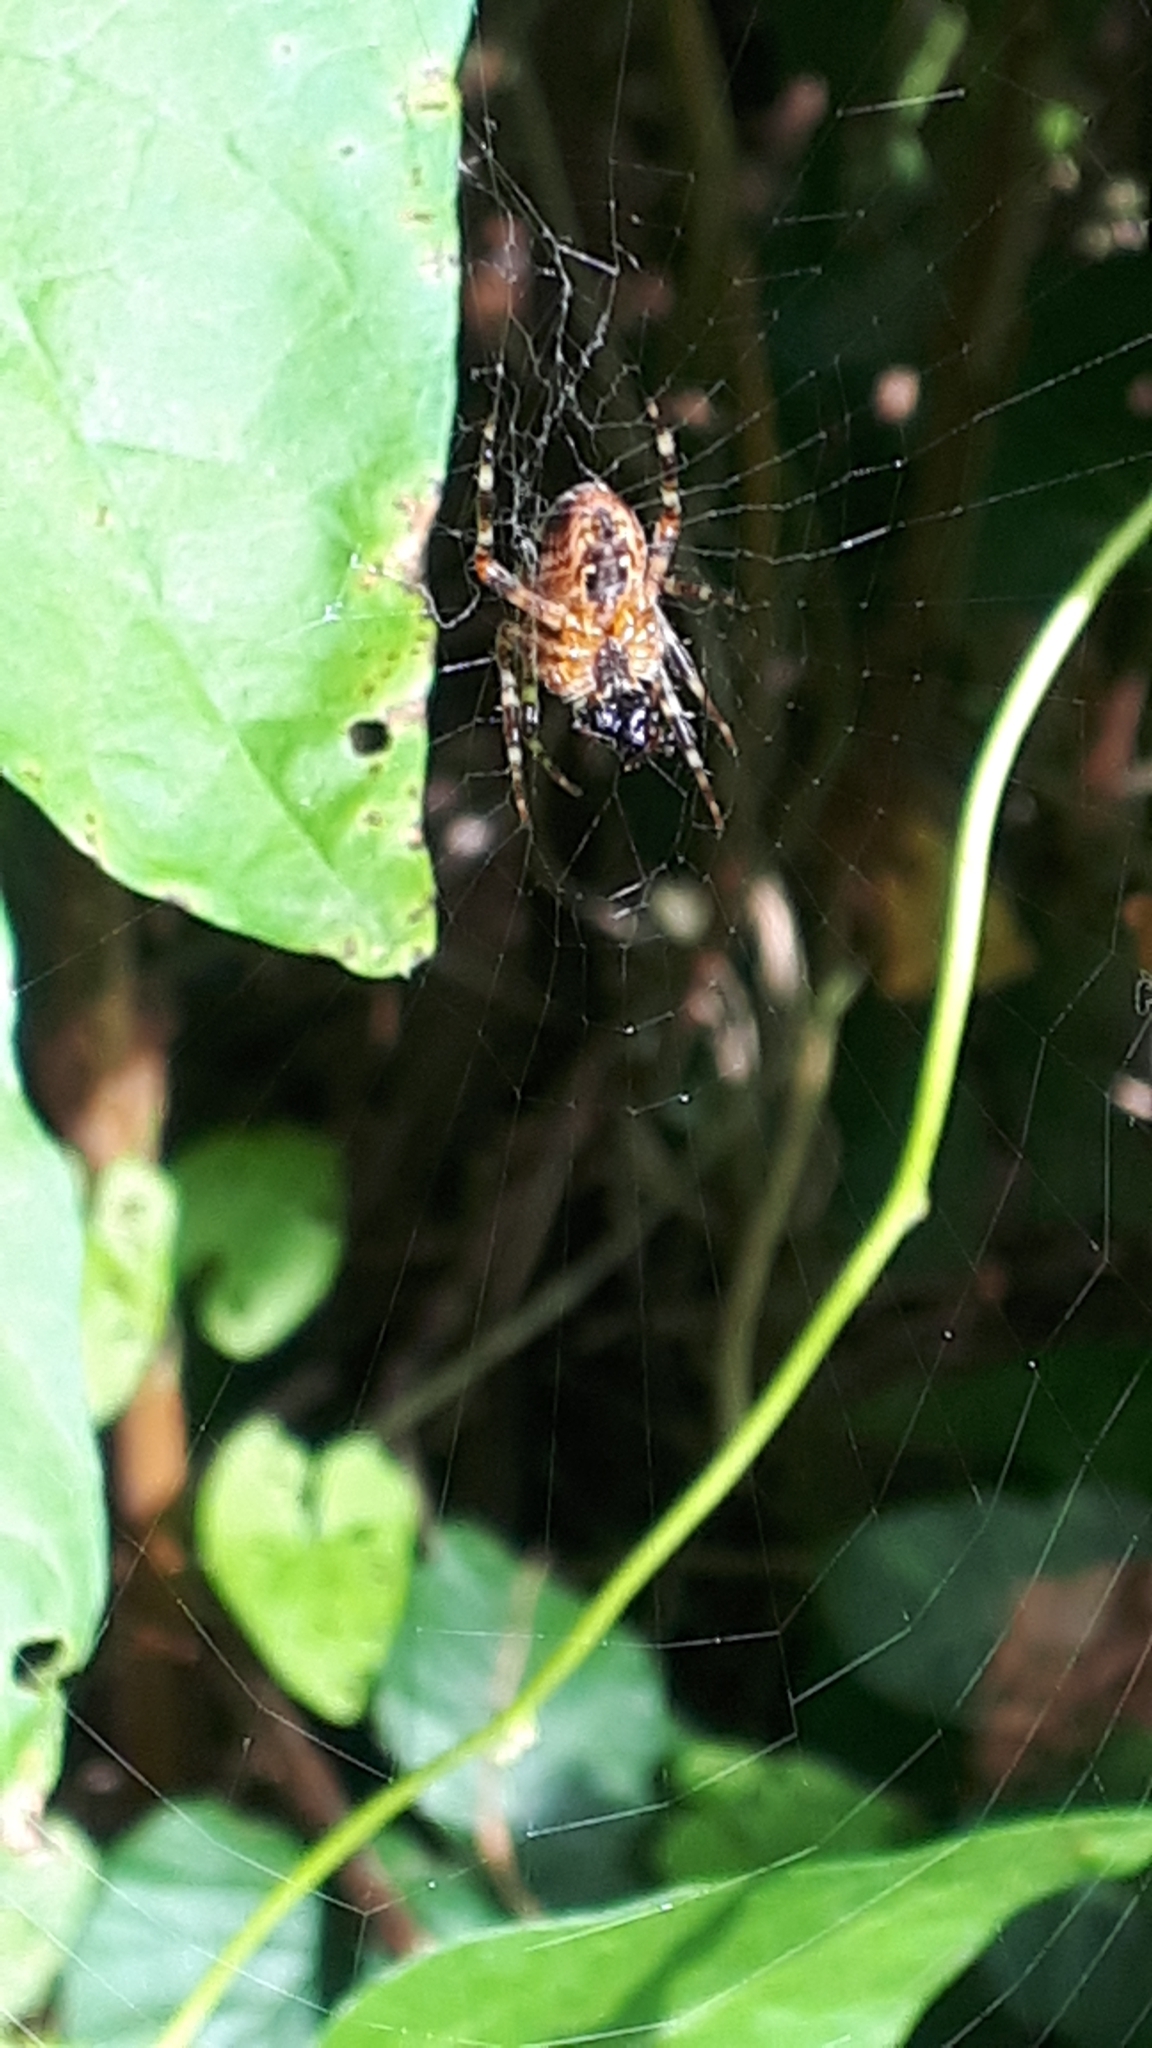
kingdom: Animalia
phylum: Arthropoda
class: Arachnida
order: Araneae
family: Araneidae
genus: Araneus
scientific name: Araneus diadematus
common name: Cross orbweaver
